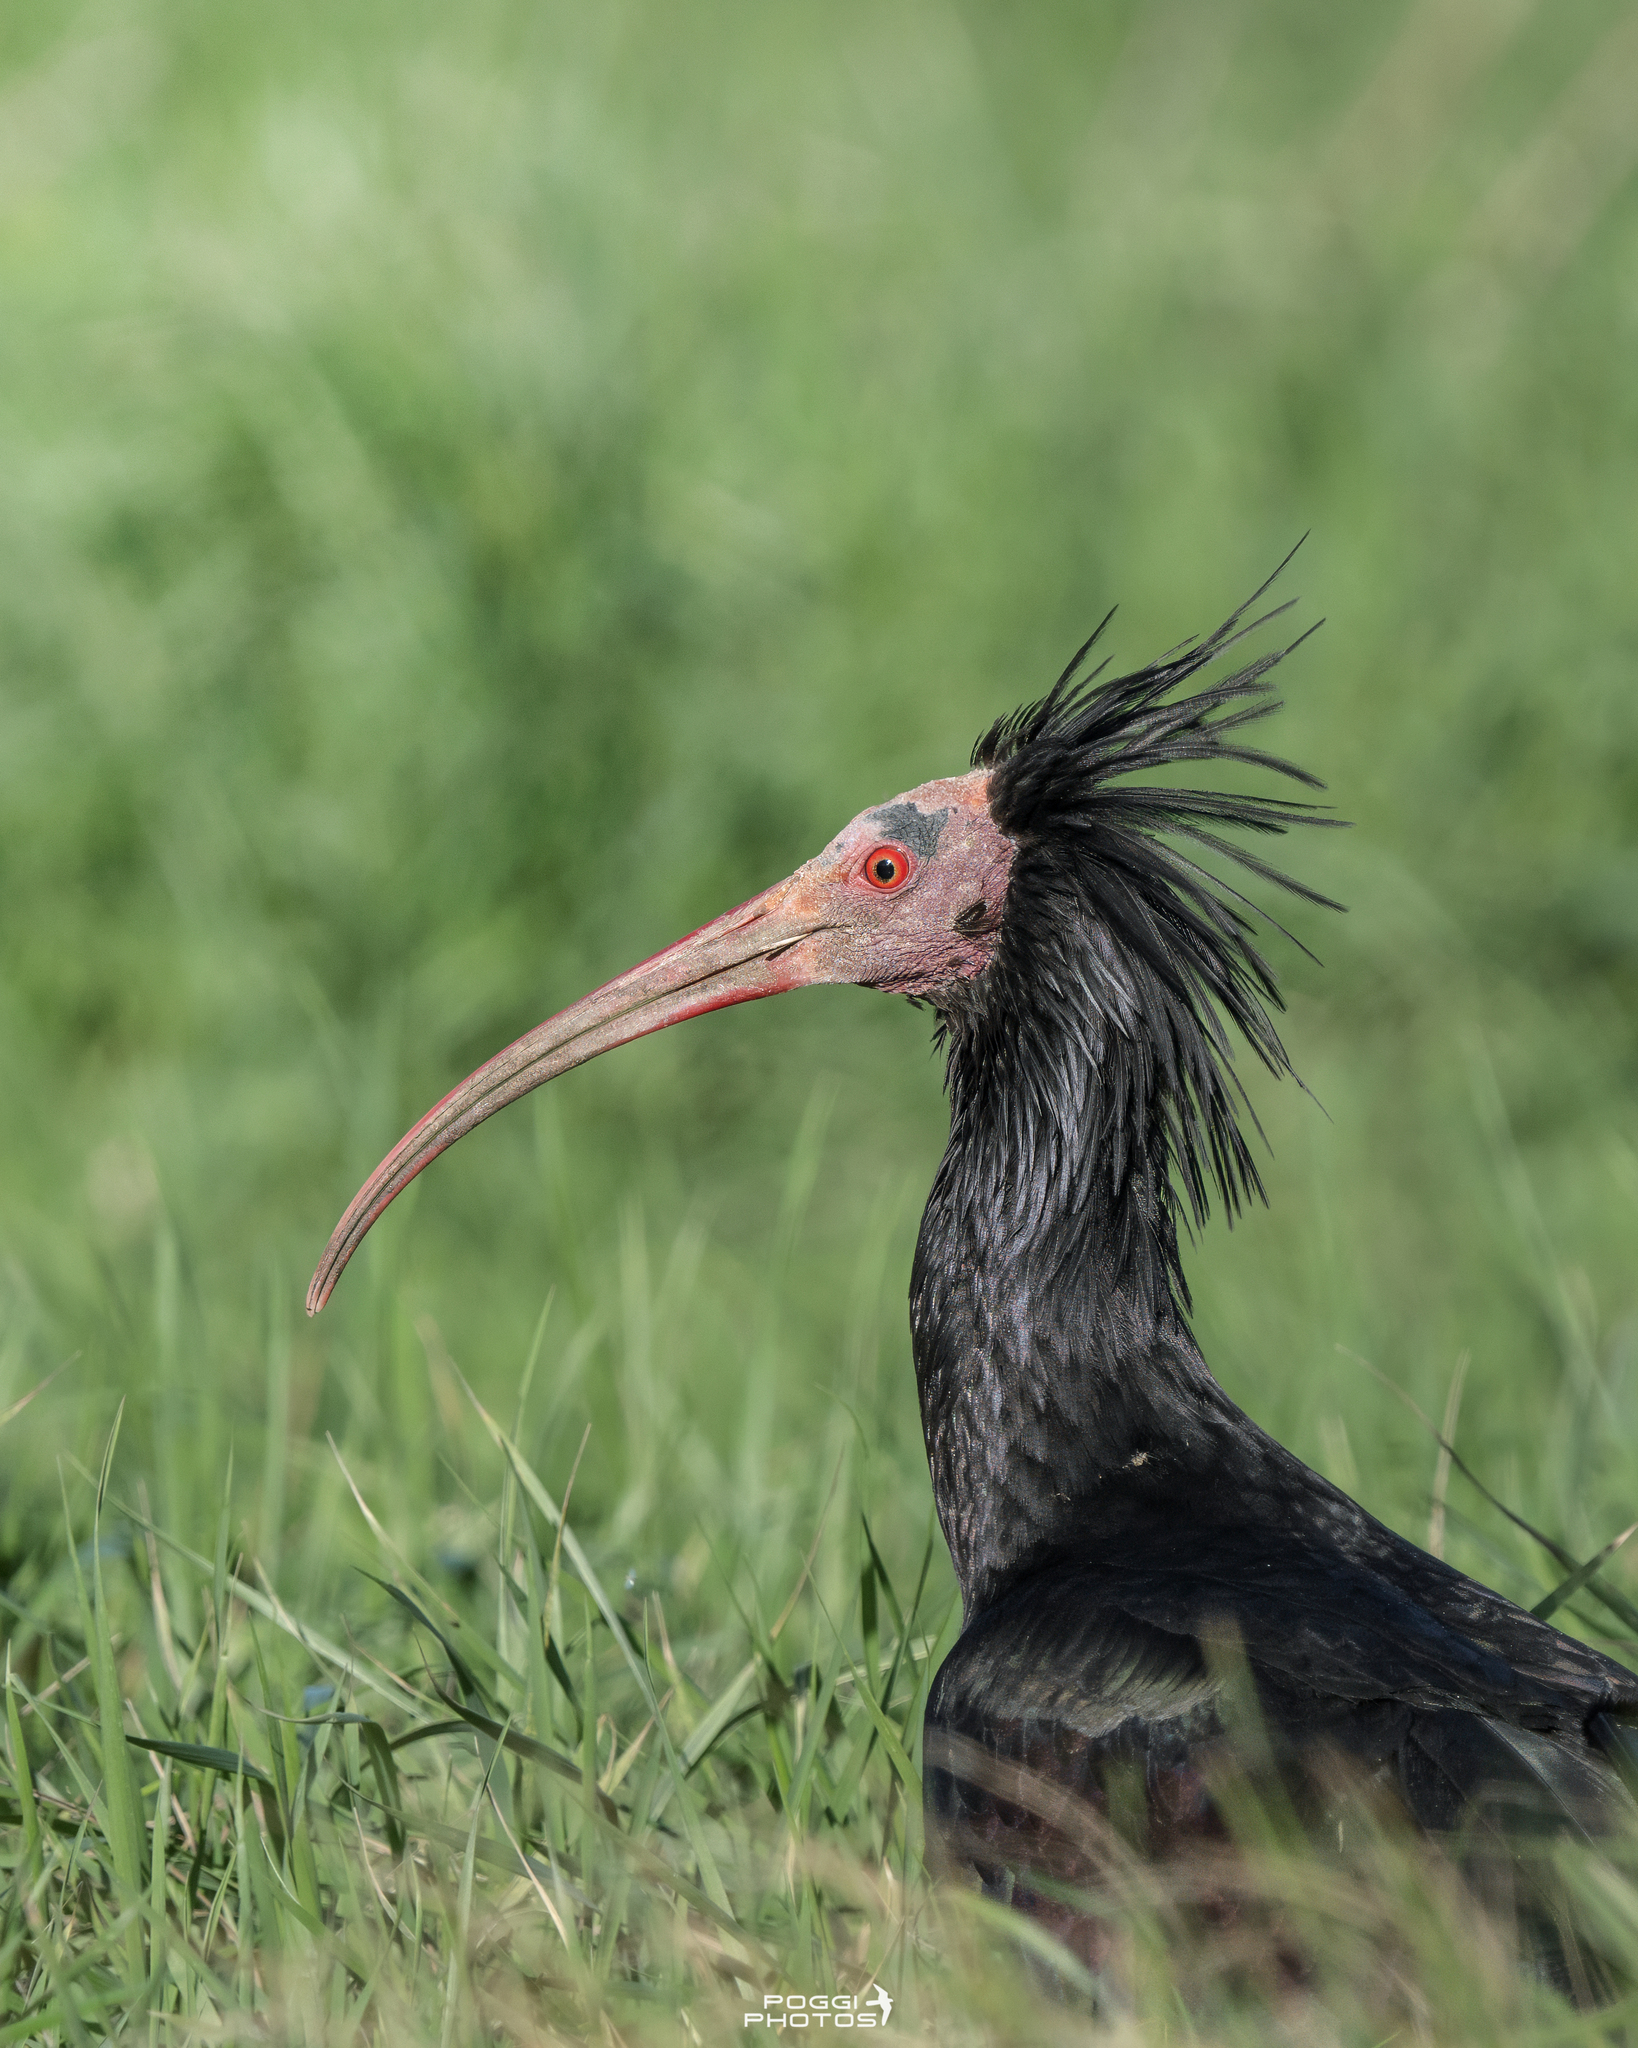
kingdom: Animalia
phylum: Chordata
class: Aves
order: Pelecaniformes
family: Threskiornithidae
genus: Geronticus
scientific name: Geronticus eremita
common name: Northern bald ibis
